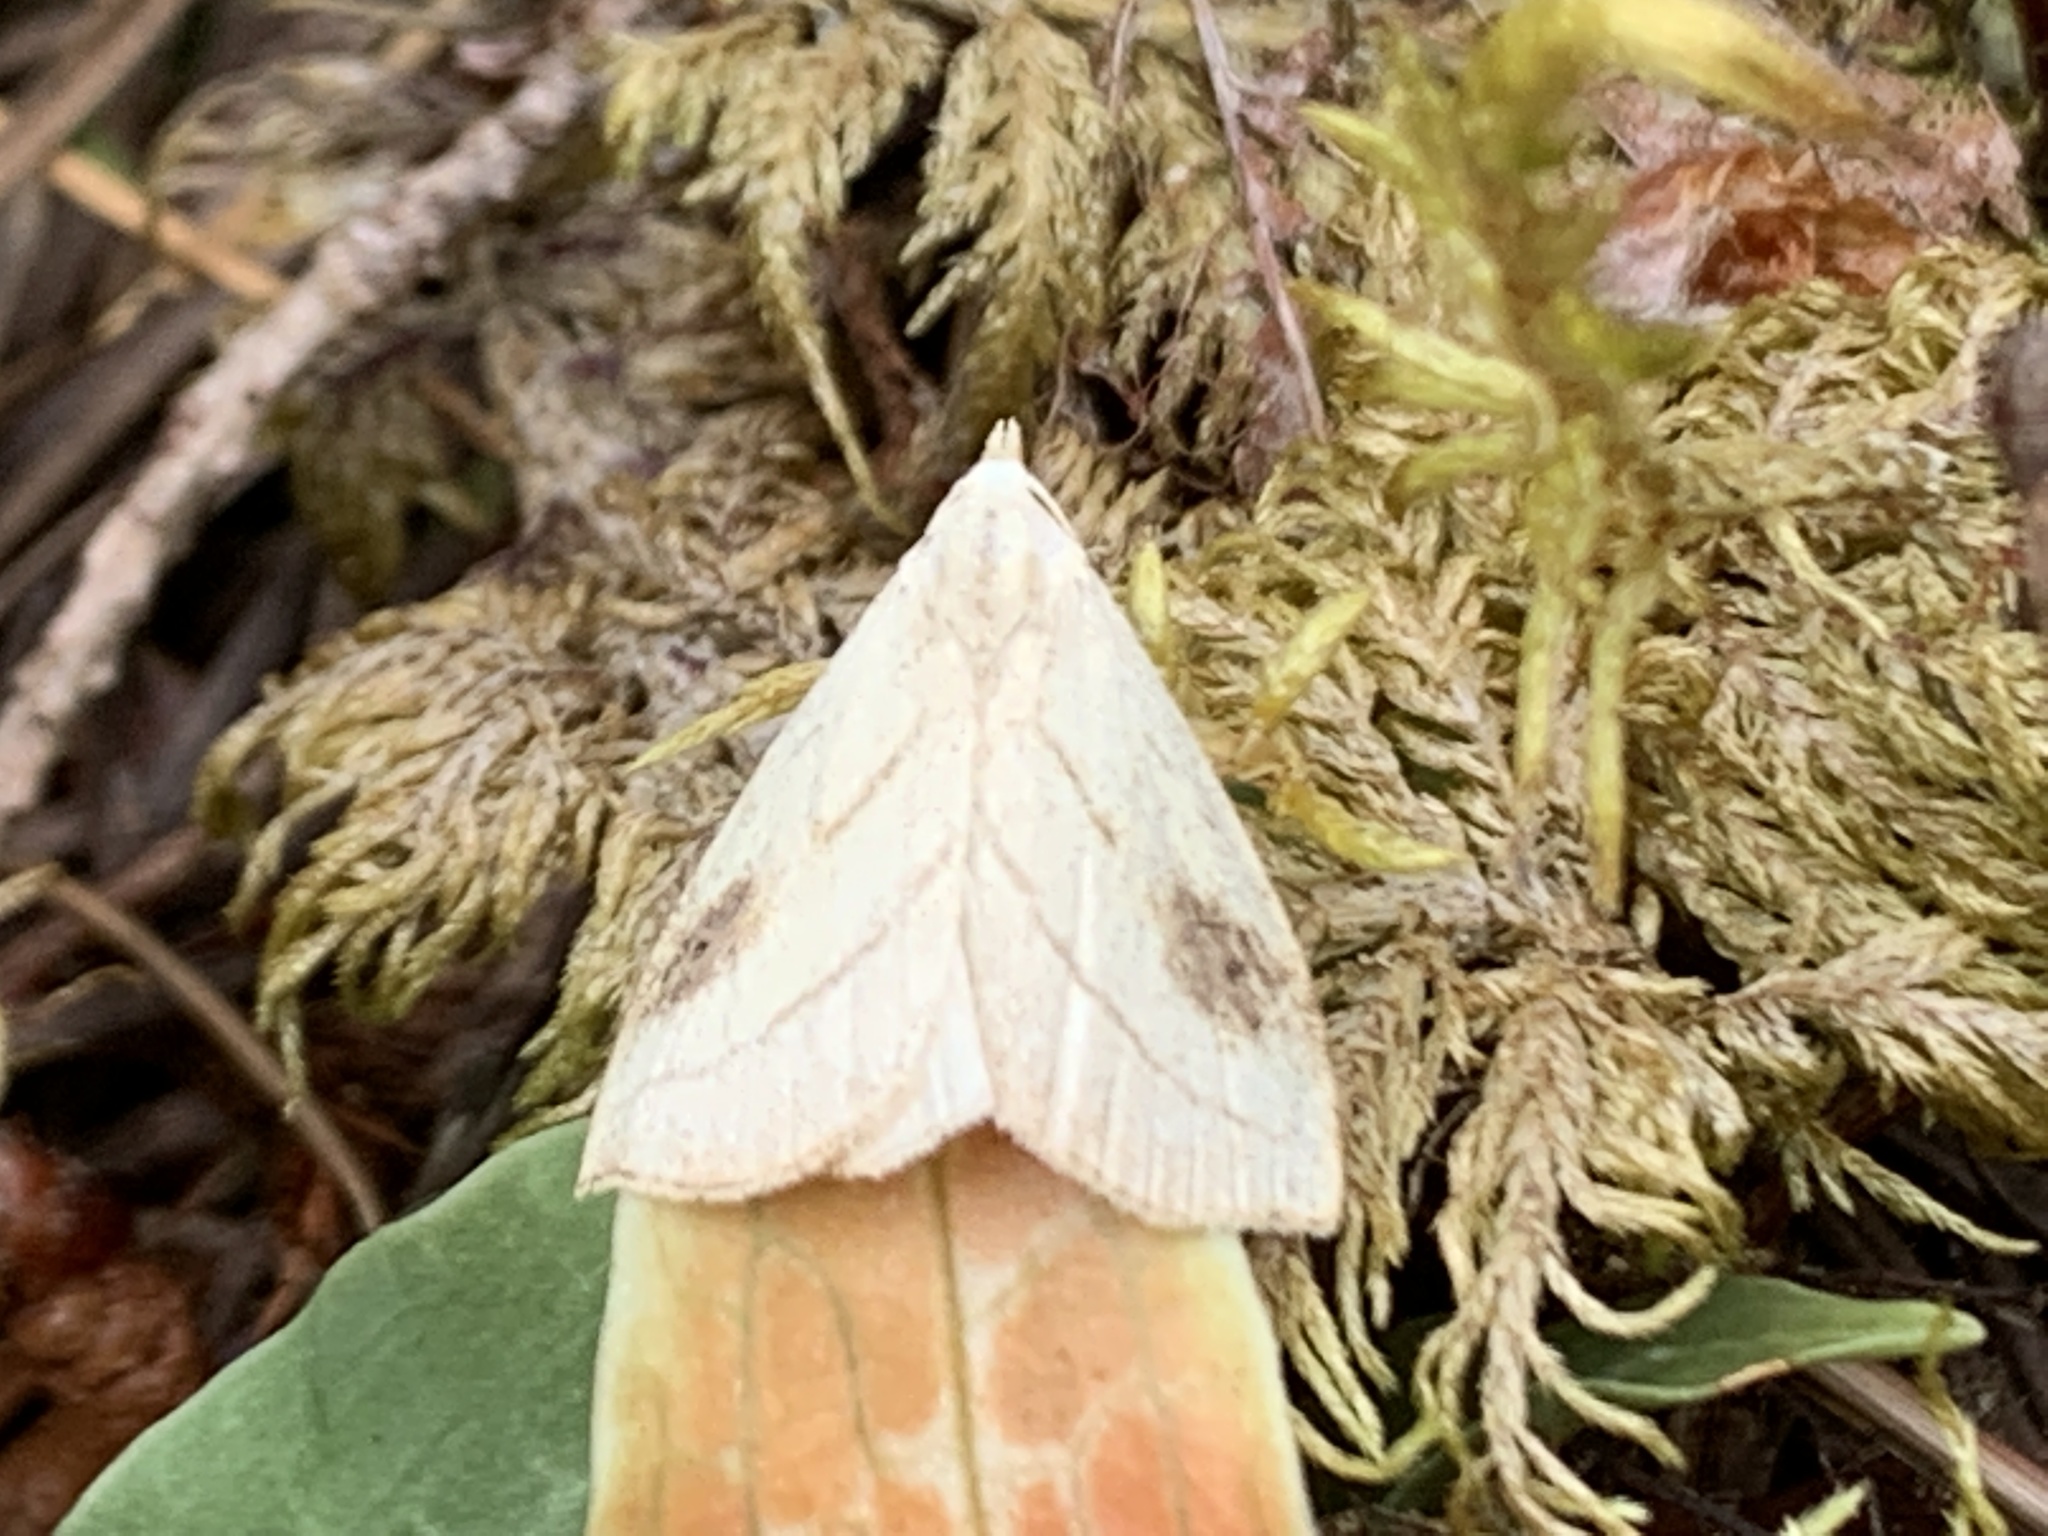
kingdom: Animalia
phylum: Arthropoda
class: Insecta
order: Lepidoptera
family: Erebidae
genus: Rivula
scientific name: Rivula propinqualis
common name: Spotted grass moth
